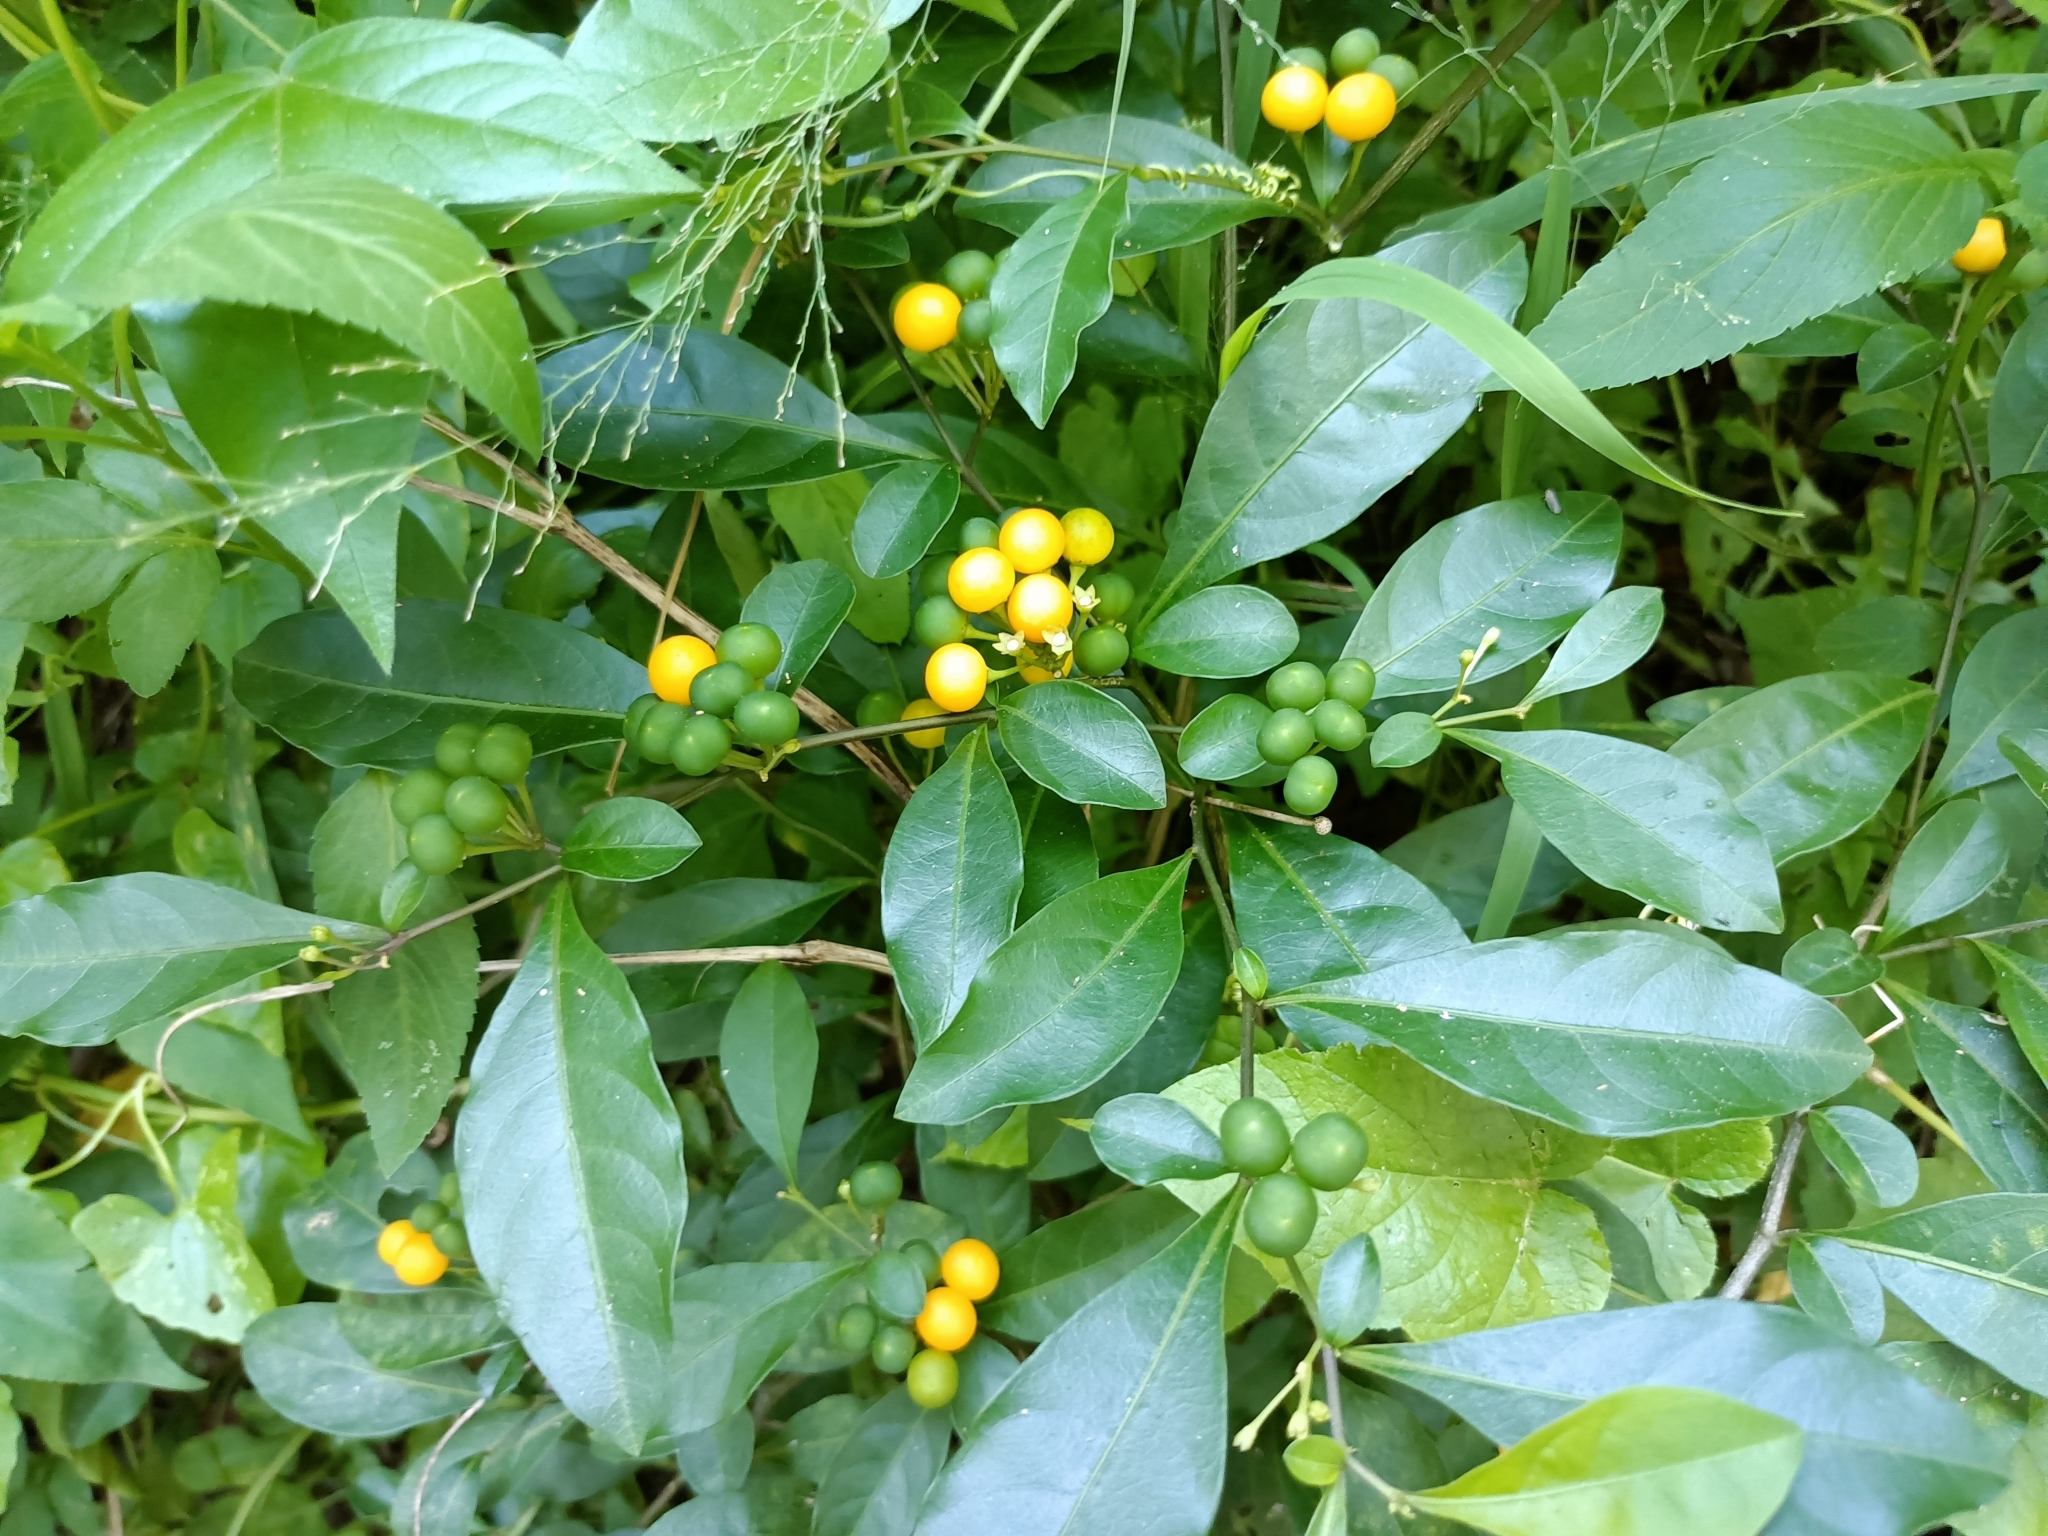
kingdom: Plantae
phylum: Tracheophyta
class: Magnoliopsida
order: Solanales
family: Solanaceae
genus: Solanum
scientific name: Solanum diphyllum
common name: Twoleaf nightshade
